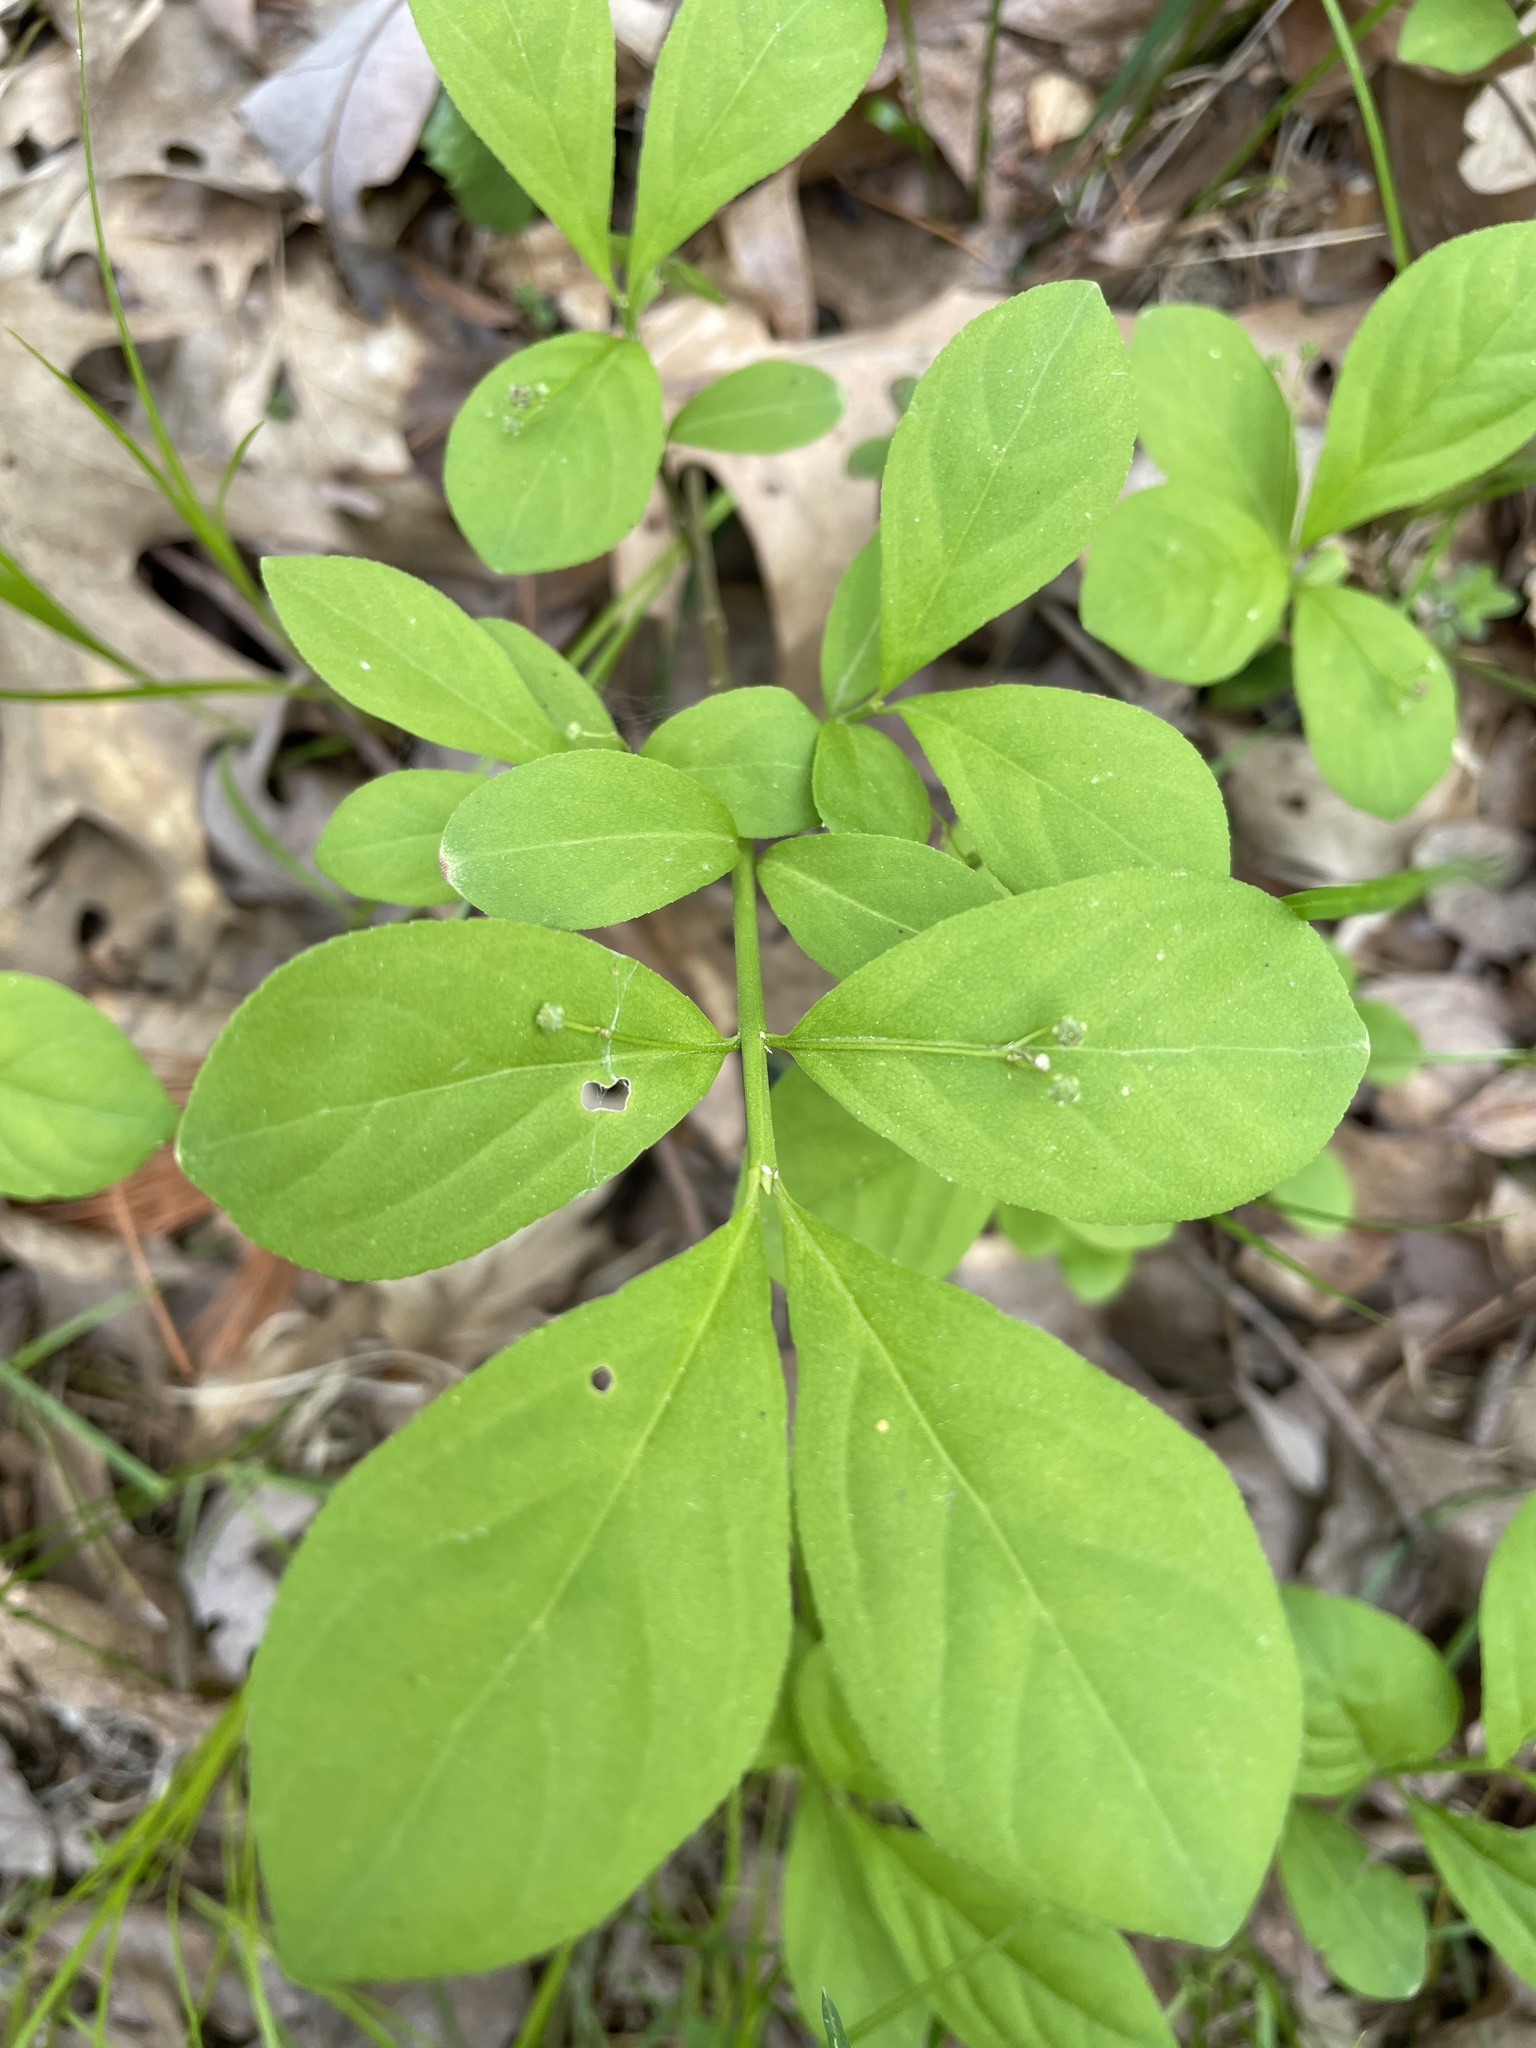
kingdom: Plantae
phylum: Tracheophyta
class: Magnoliopsida
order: Celastrales
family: Celastraceae
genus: Euonymus
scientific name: Euonymus obovatus
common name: Running strawberry-bush
